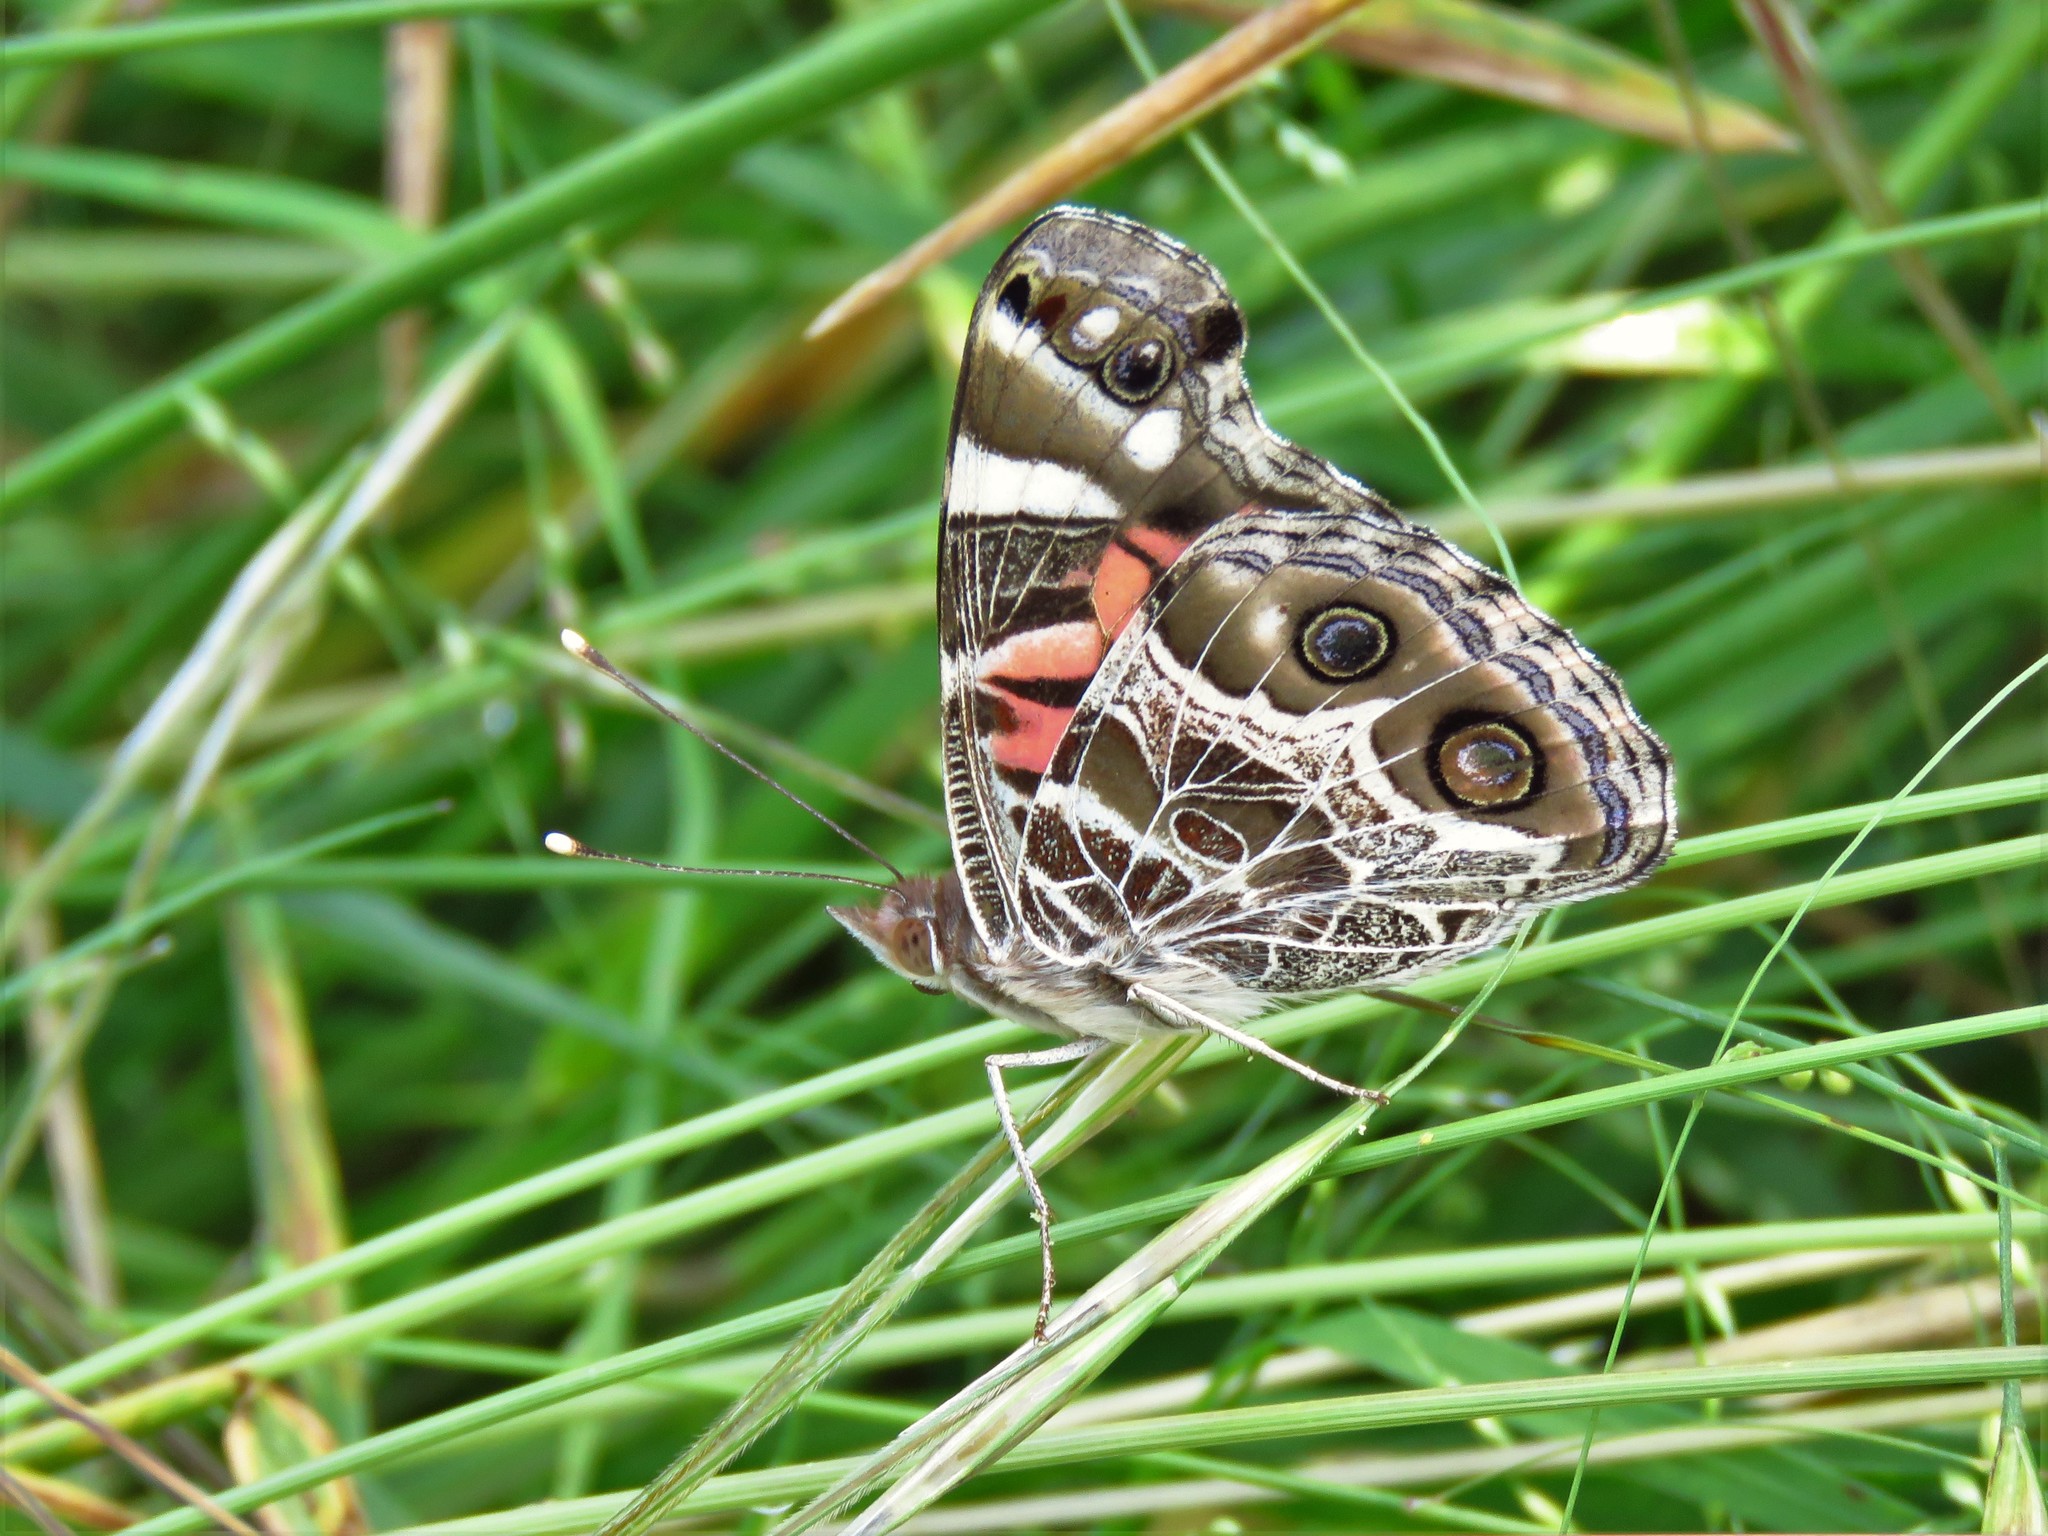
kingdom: Animalia
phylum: Arthropoda
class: Insecta
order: Lepidoptera
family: Nymphalidae
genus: Vanessa
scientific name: Vanessa virginiensis
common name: American lady
